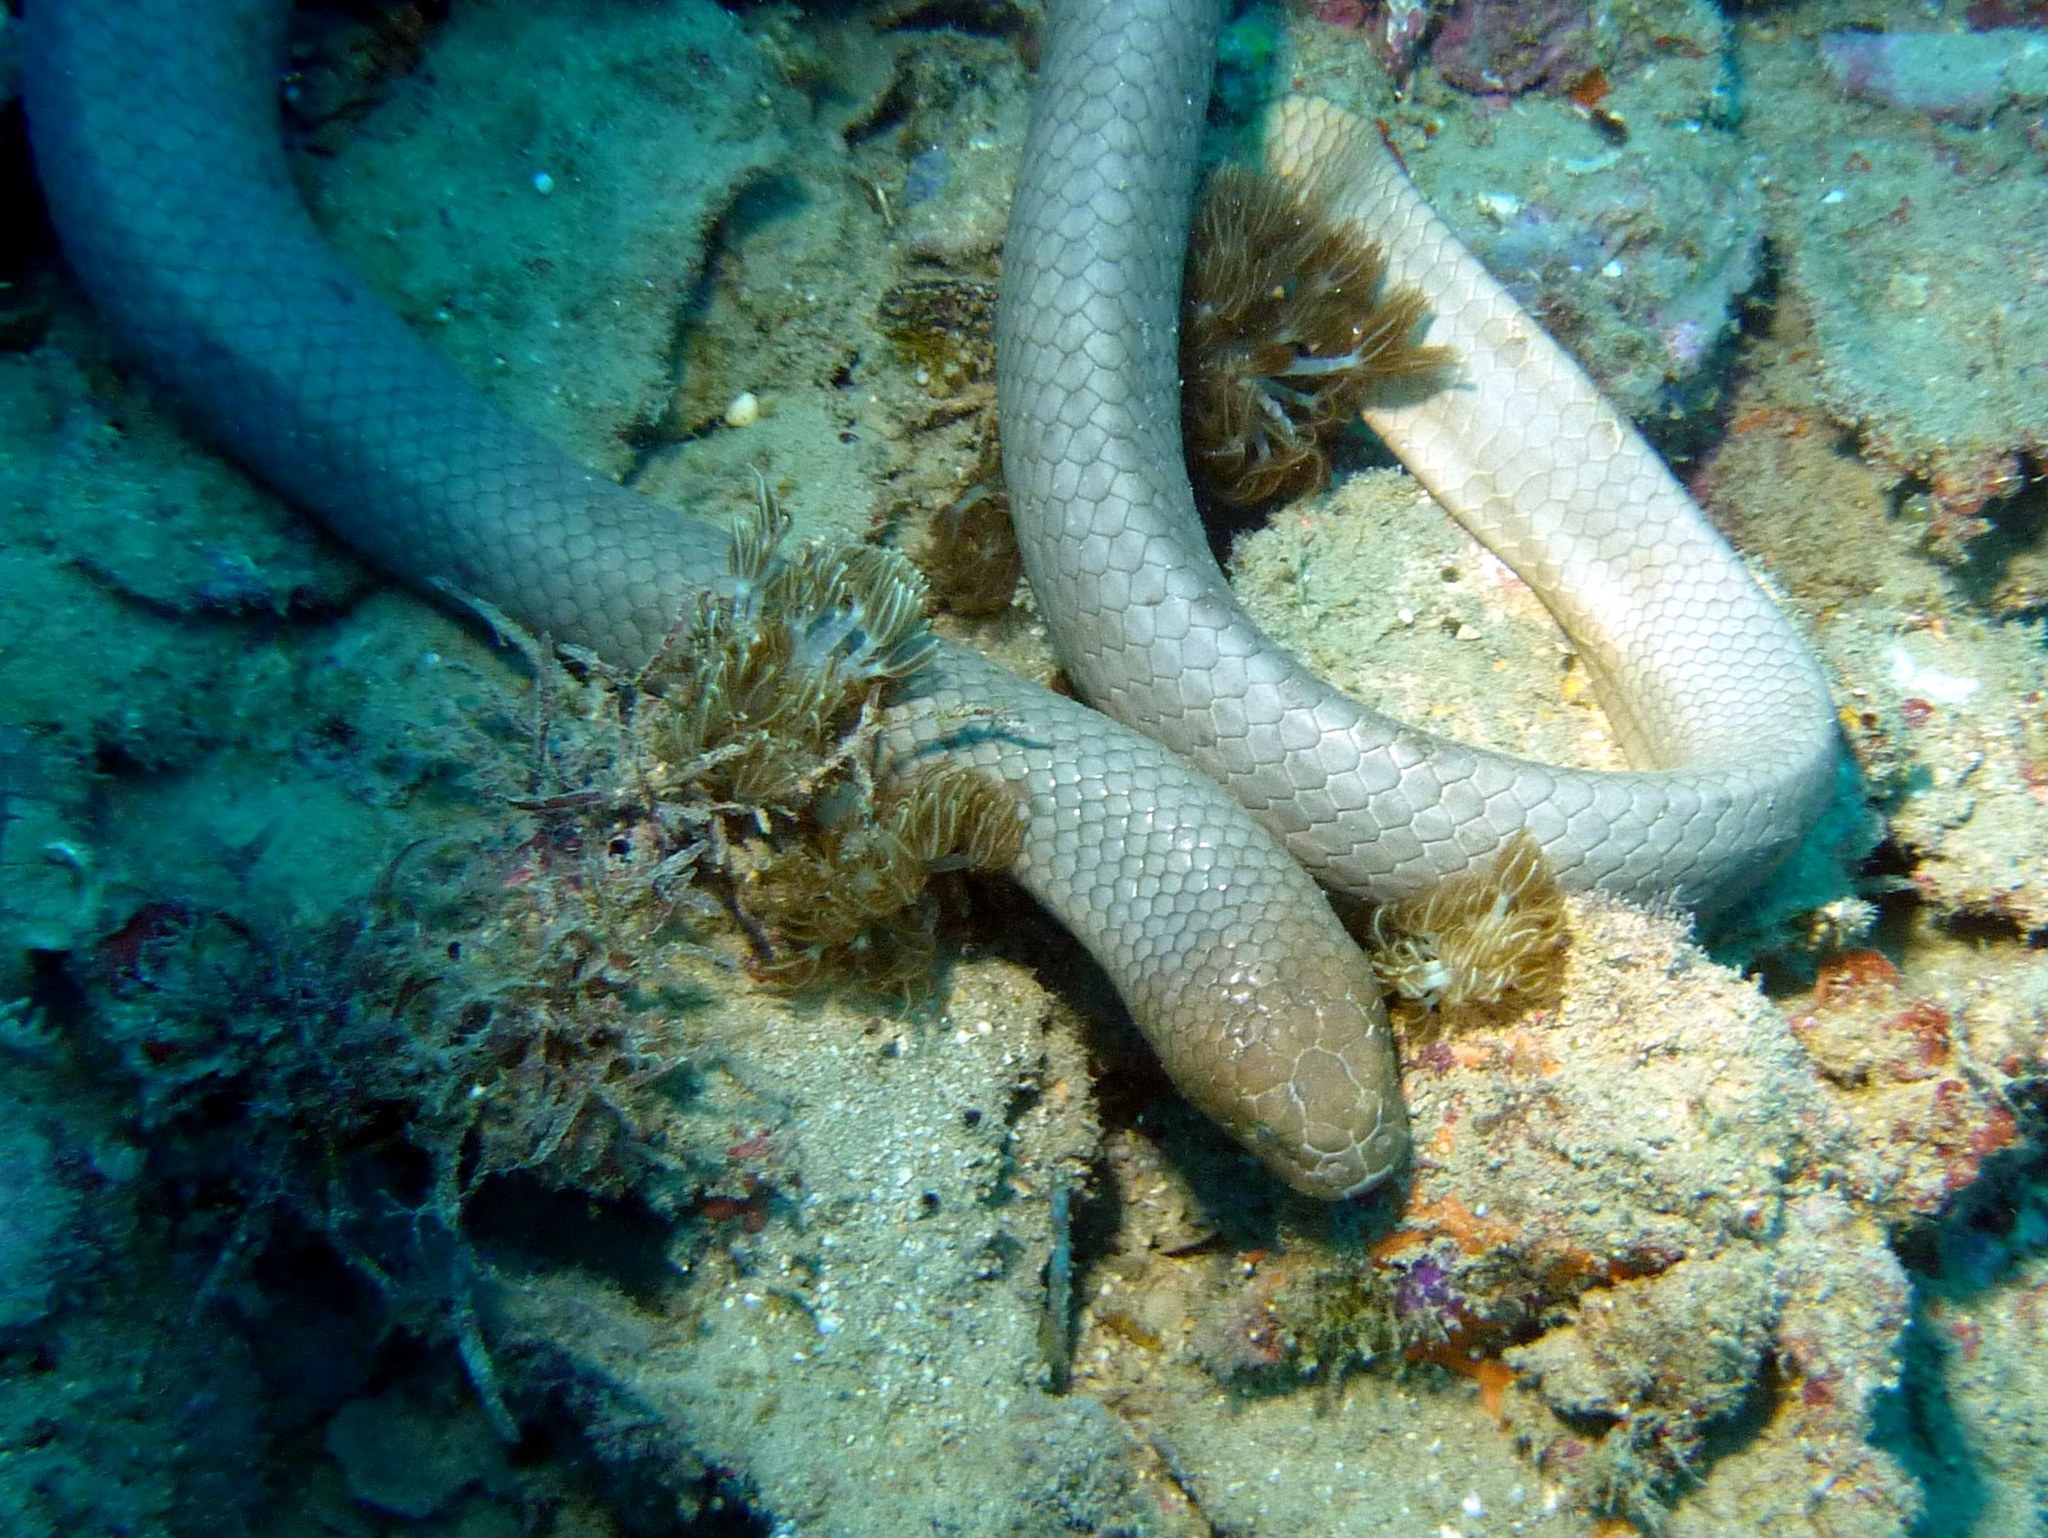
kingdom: Animalia
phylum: Chordata
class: Squamata
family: Elapidae
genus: Aipysurus
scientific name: Aipysurus laevis
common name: Olive sea snake
